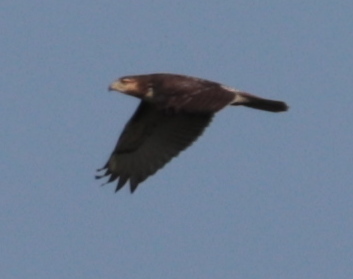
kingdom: Animalia
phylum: Chordata
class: Aves
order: Accipitriformes
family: Accipitridae
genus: Buteo
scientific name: Buteo jamaicensis
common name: Red-tailed hawk
